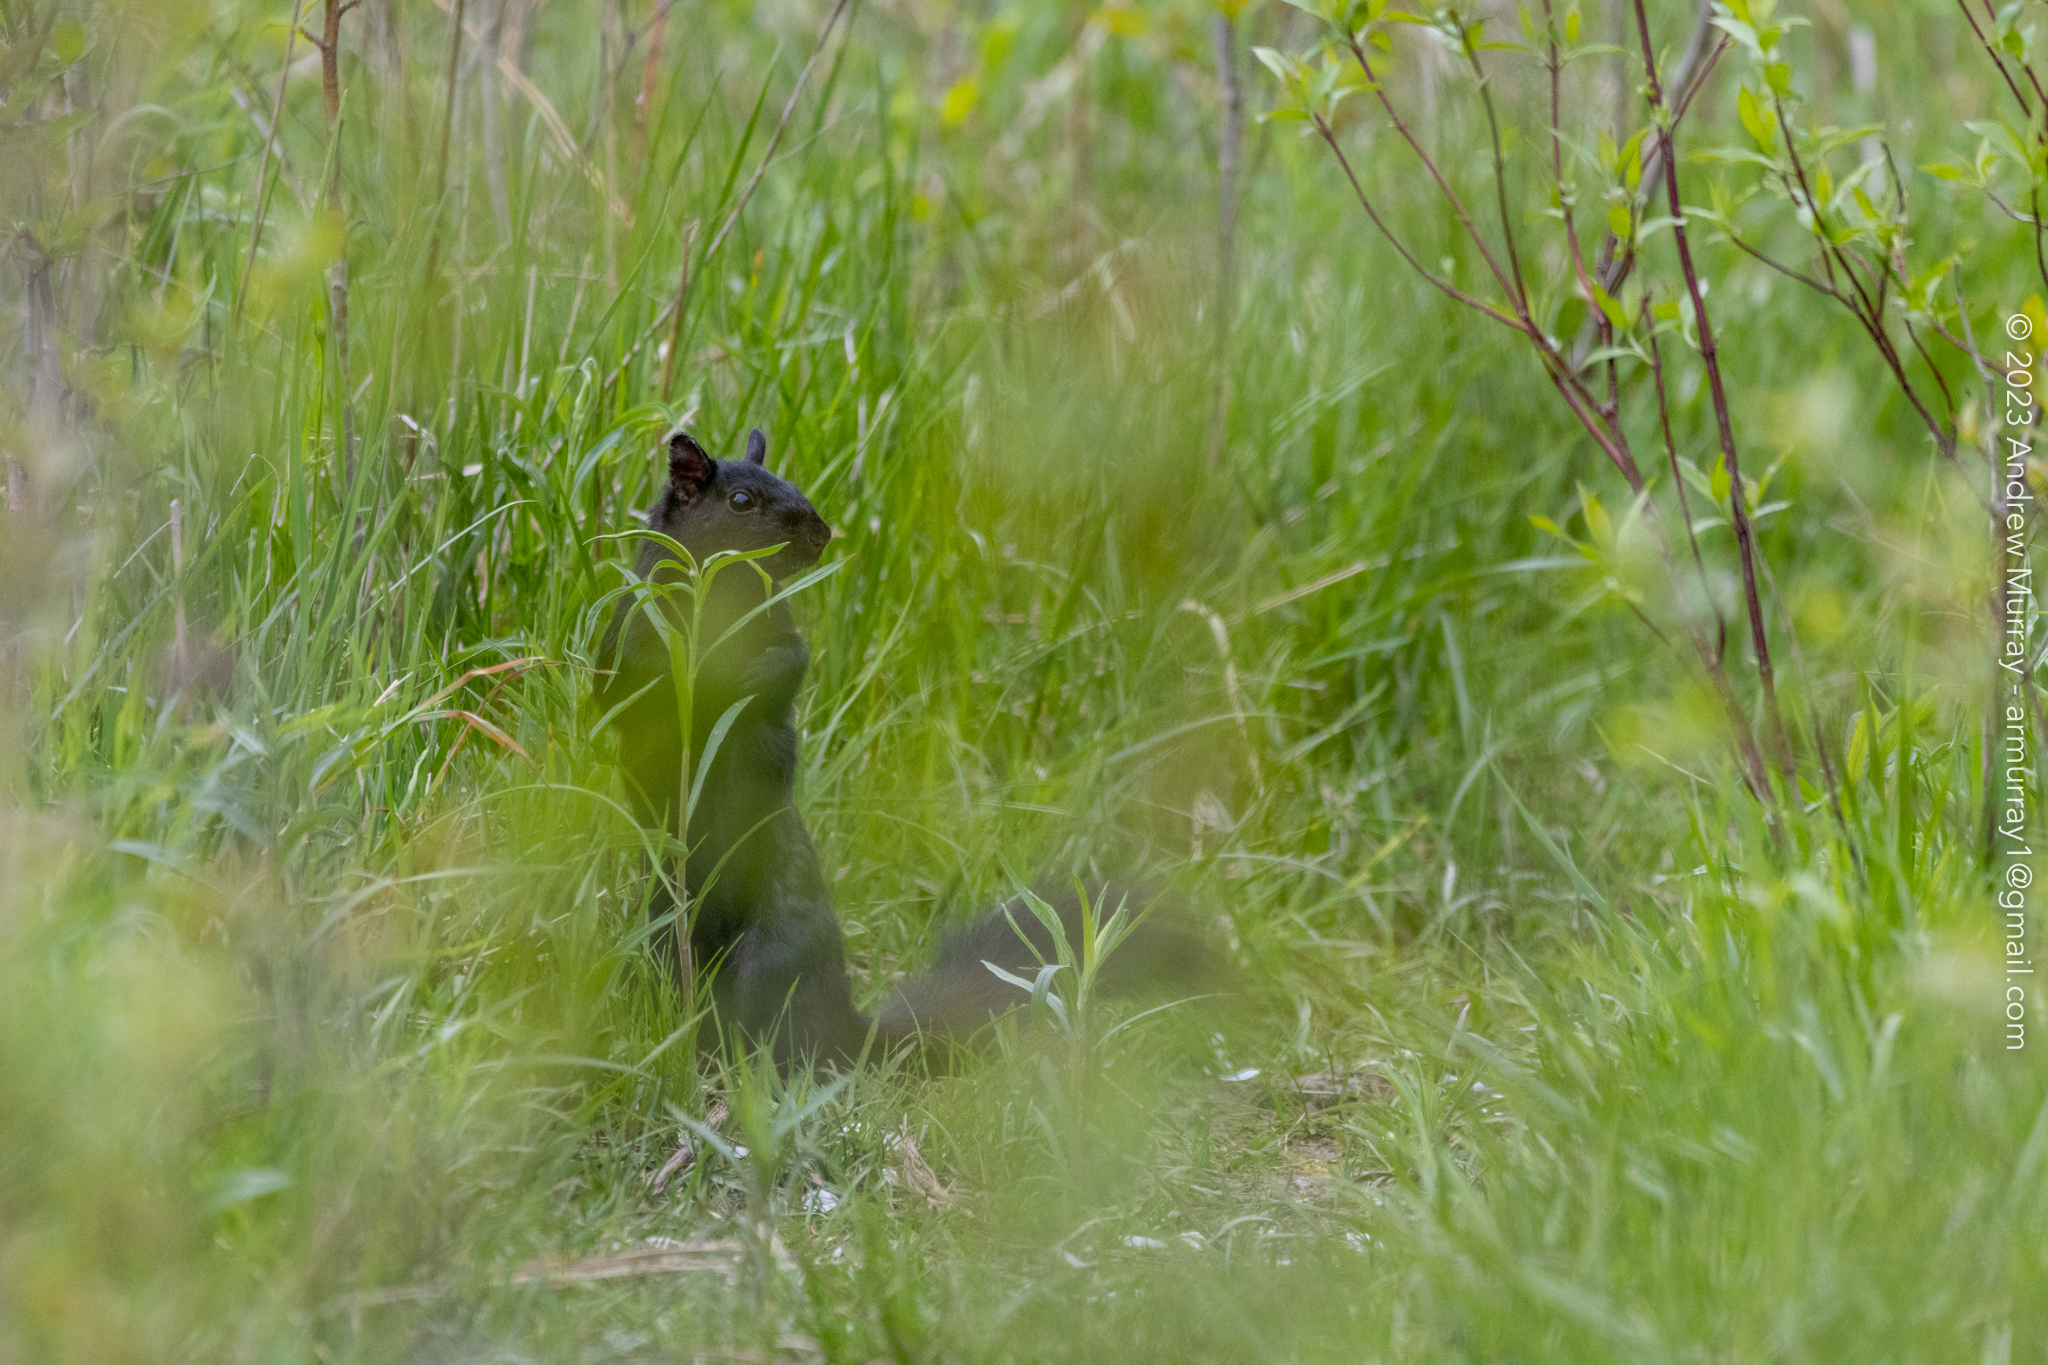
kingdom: Animalia
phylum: Chordata
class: Mammalia
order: Rodentia
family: Sciuridae
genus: Sciurus
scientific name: Sciurus carolinensis
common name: Eastern gray squirrel
